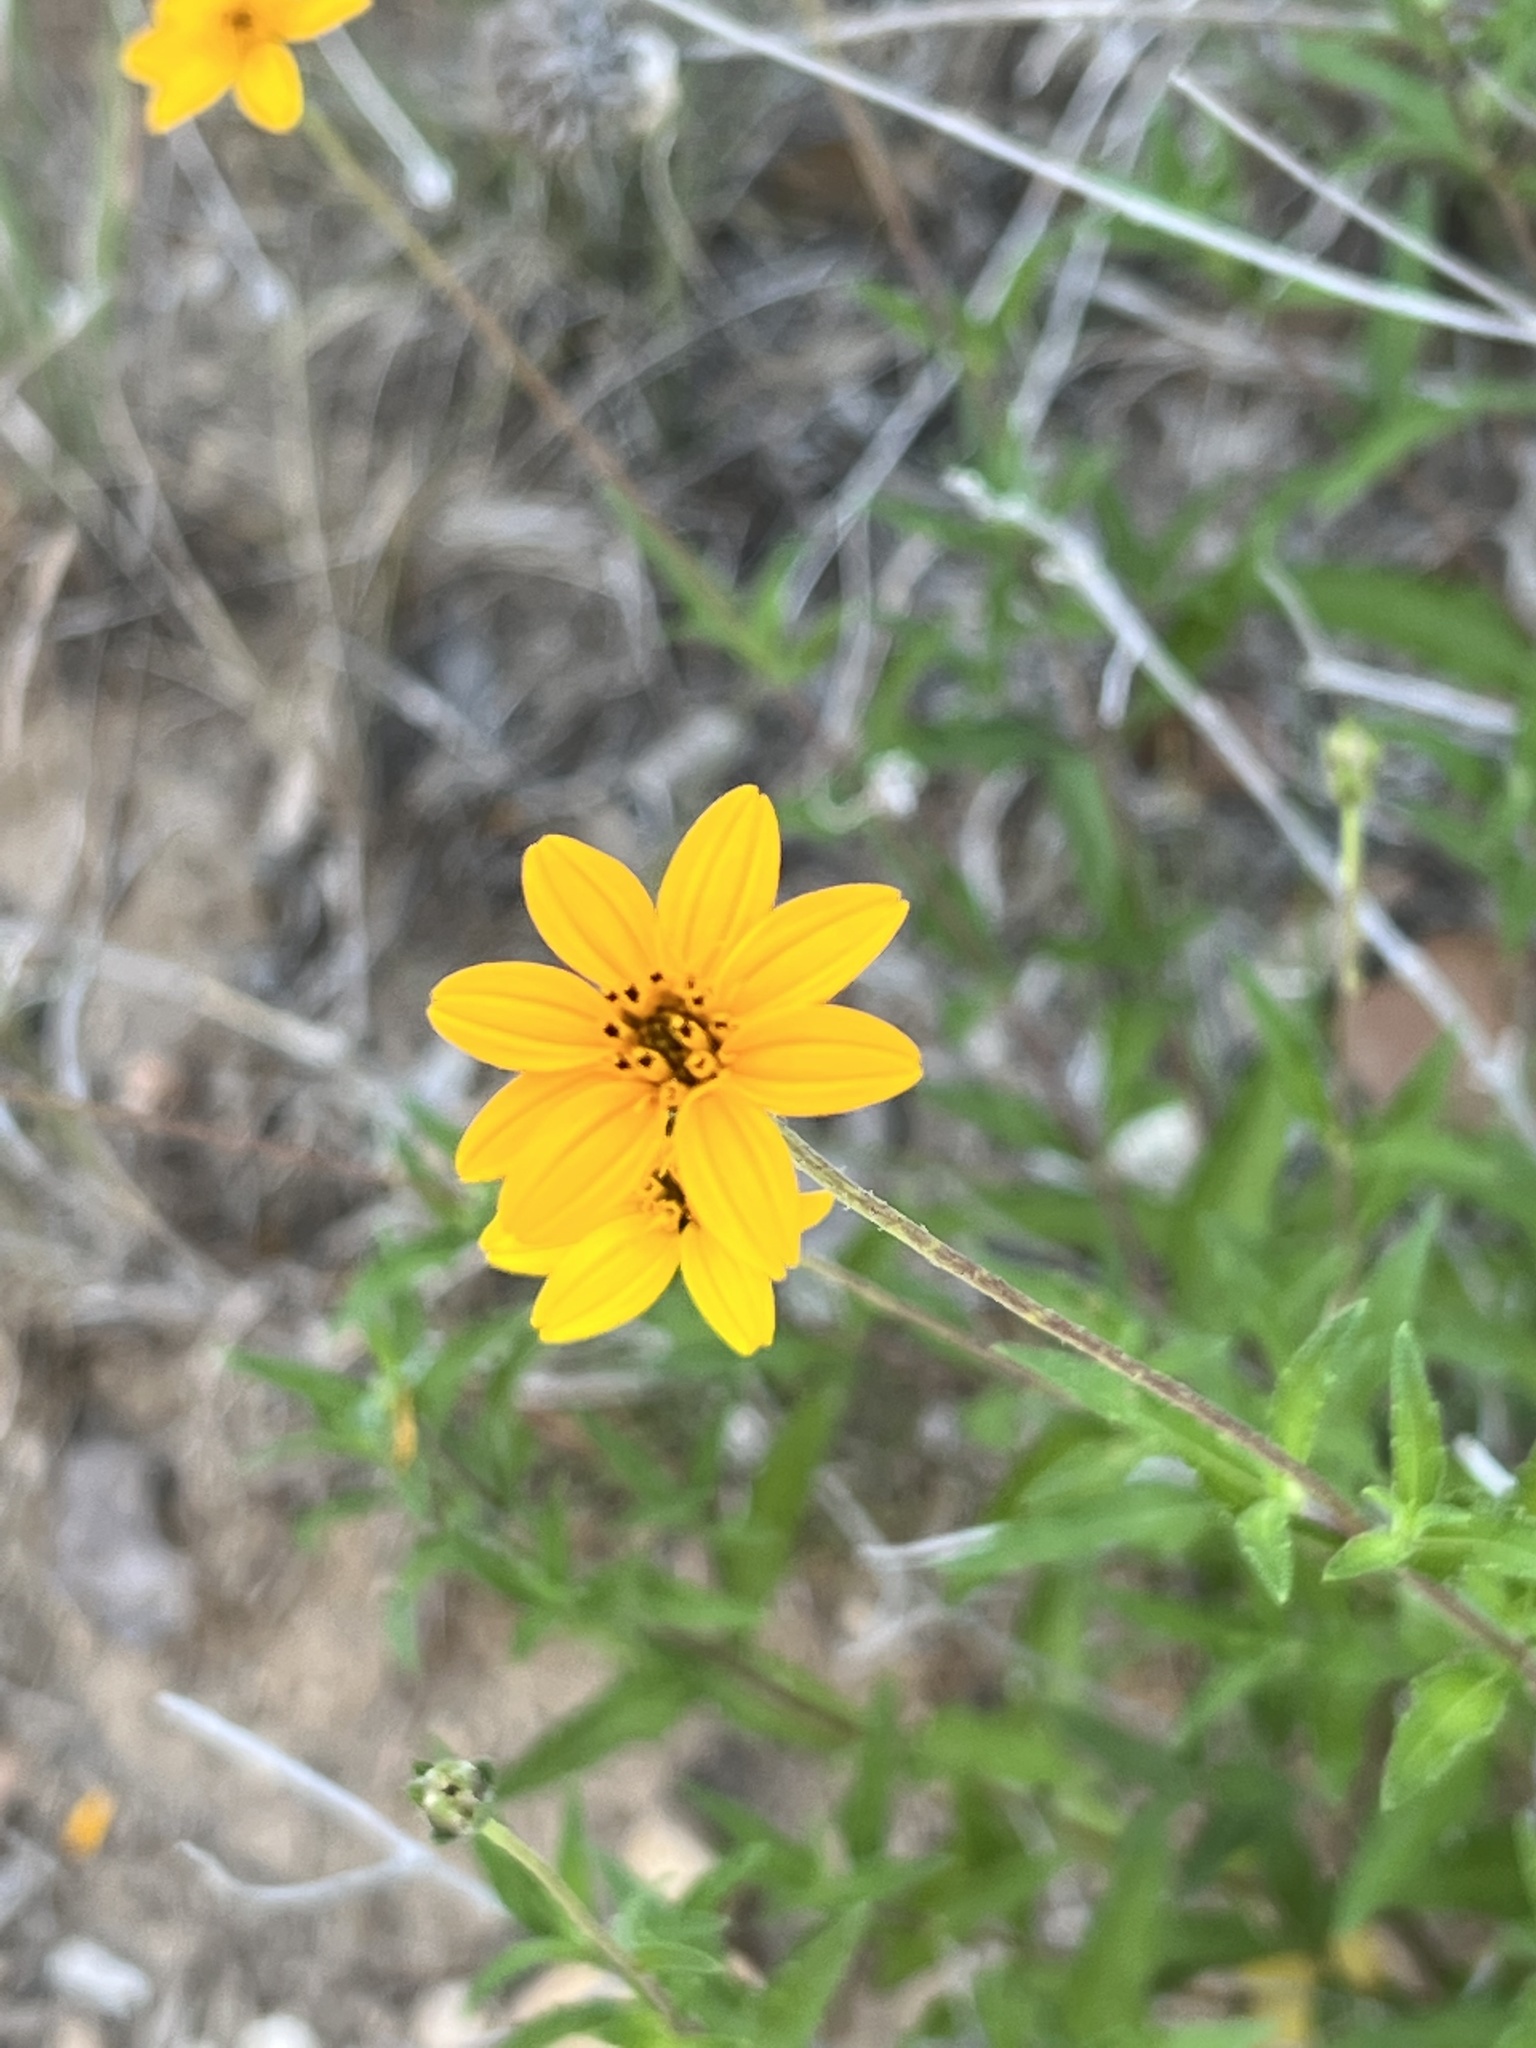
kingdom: Plantae
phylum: Tracheophyta
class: Magnoliopsida
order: Asterales
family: Asteraceae
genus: Wedelia
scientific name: Wedelia acapulcensis
